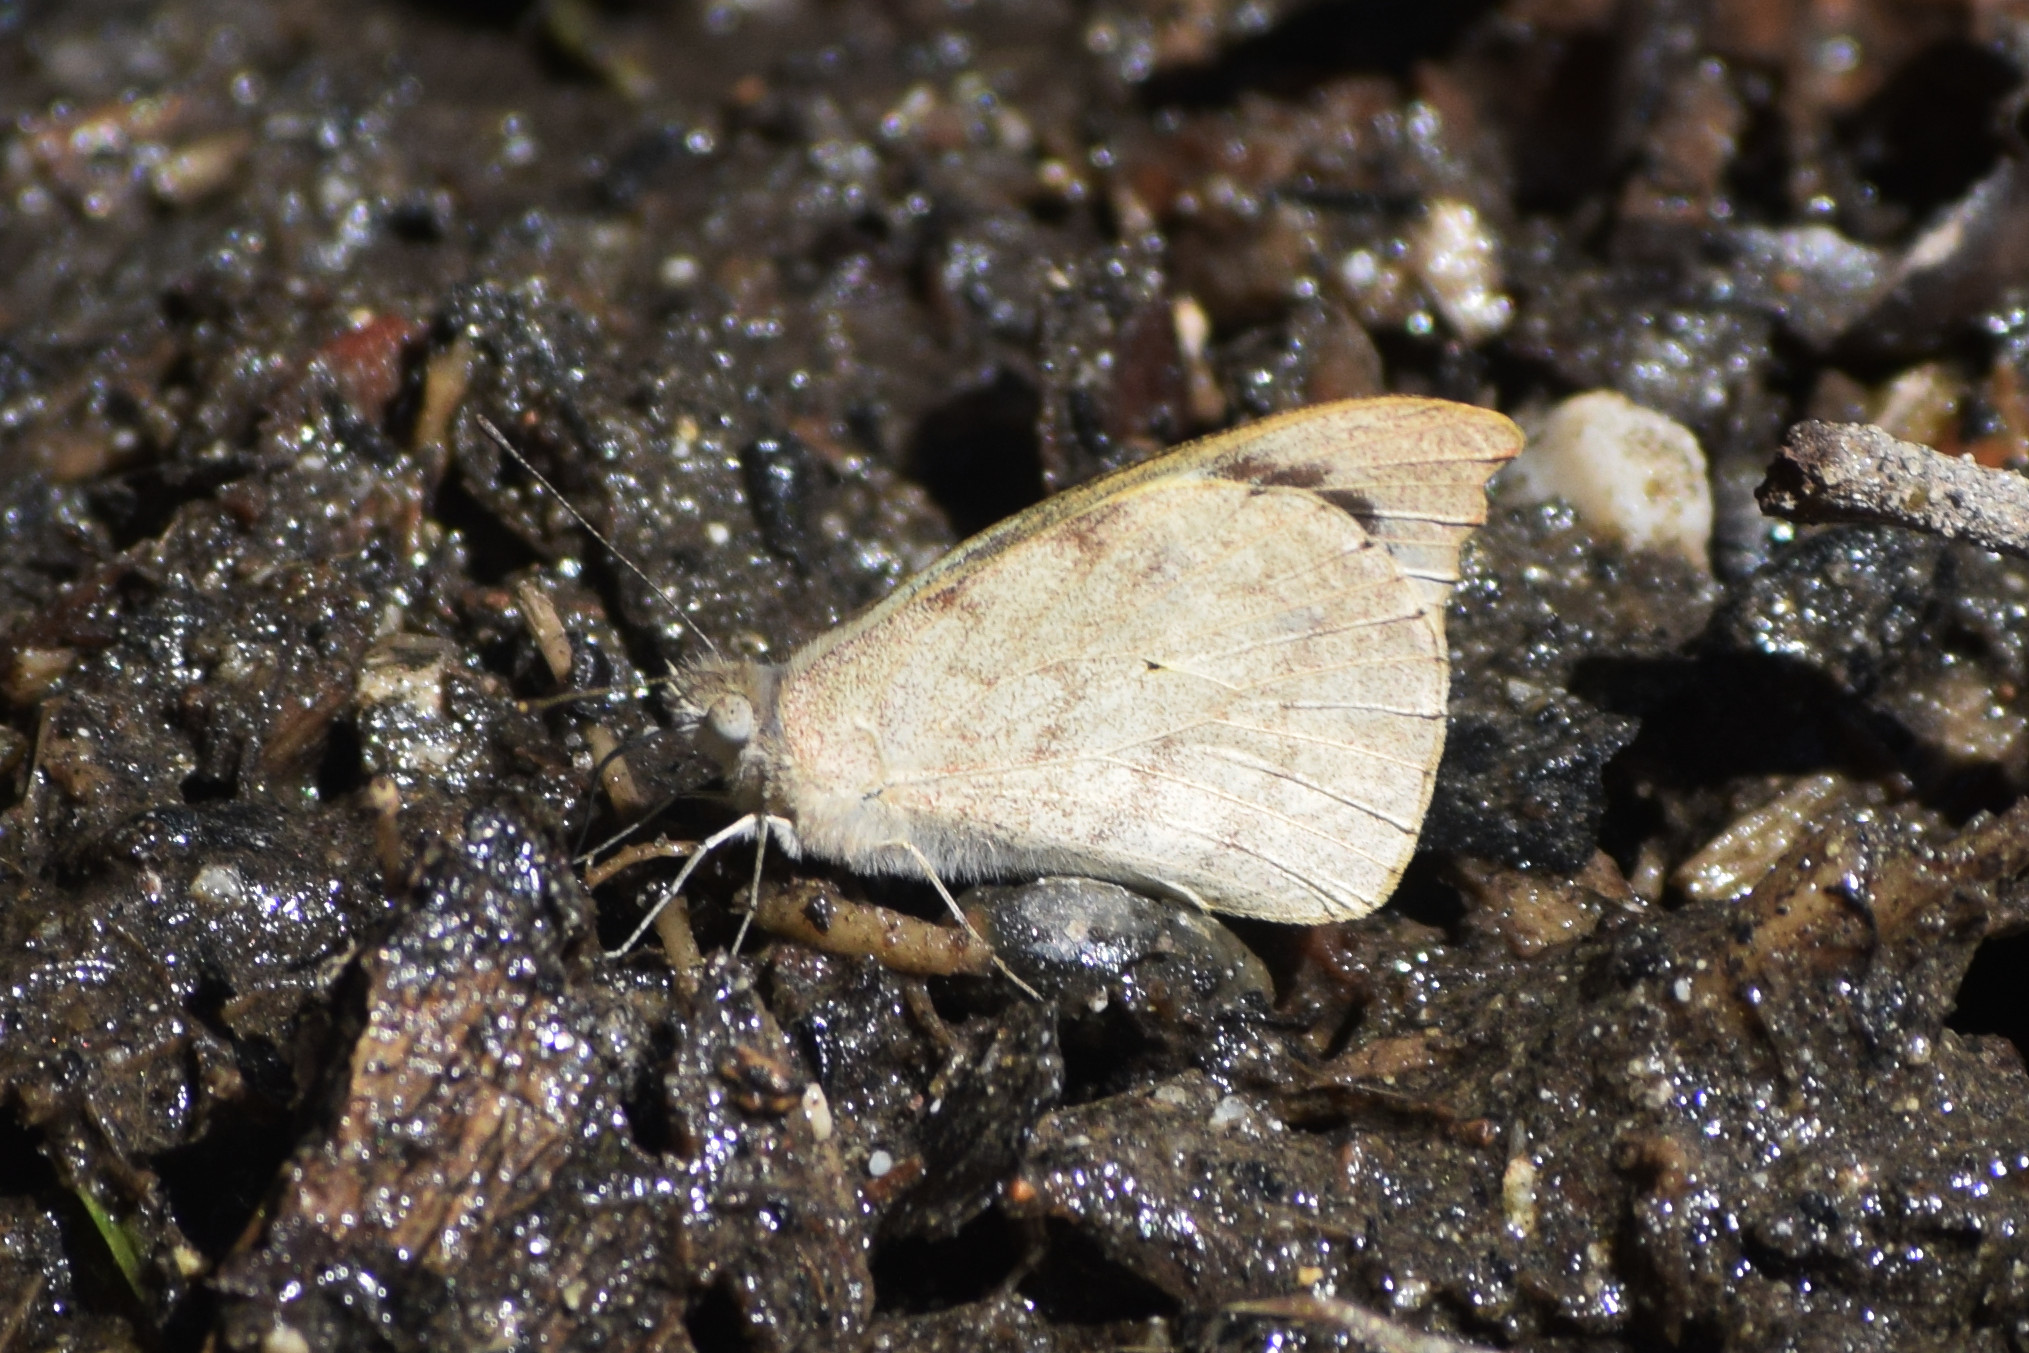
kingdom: Animalia
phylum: Arthropoda
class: Insecta
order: Lepidoptera
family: Pieridae
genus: Appias
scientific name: Appias lalage
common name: Spot puffin
